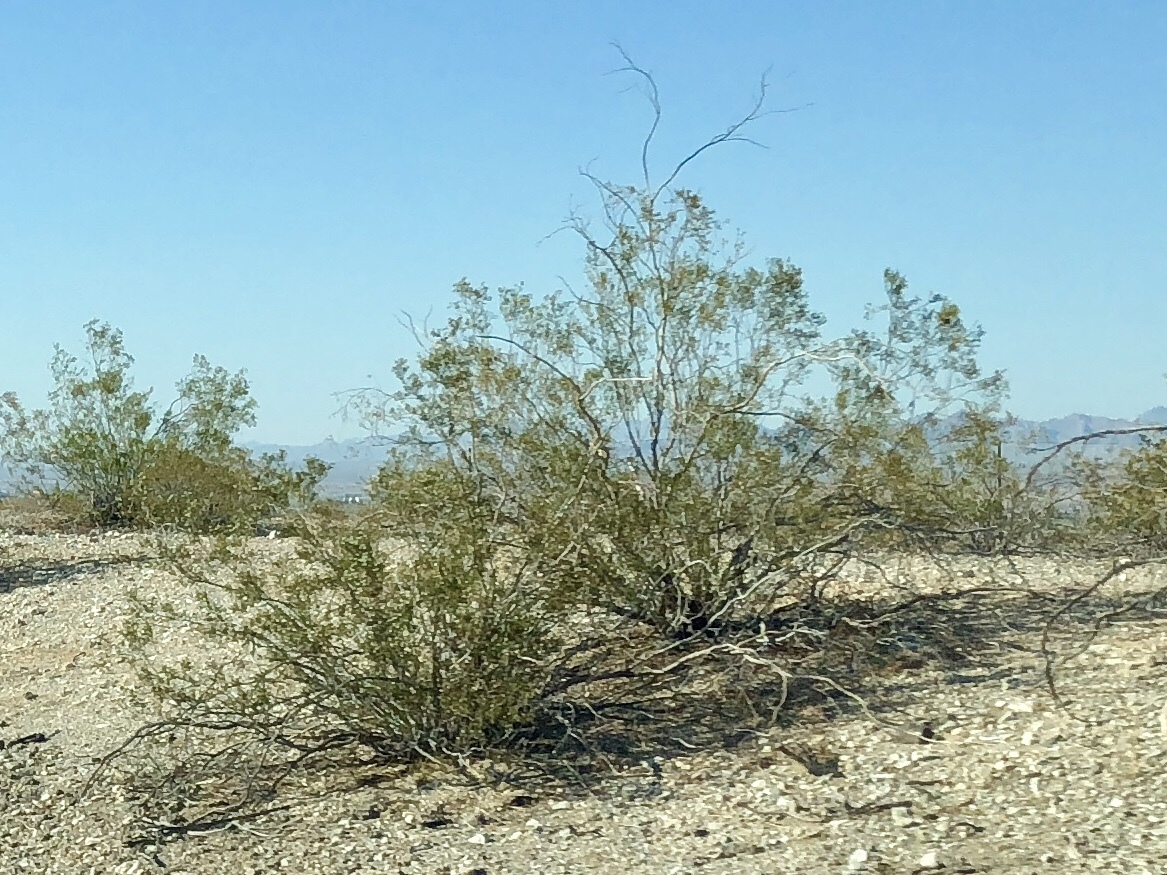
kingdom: Plantae
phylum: Tracheophyta
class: Magnoliopsida
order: Zygophyllales
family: Zygophyllaceae
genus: Larrea
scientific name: Larrea tridentata
